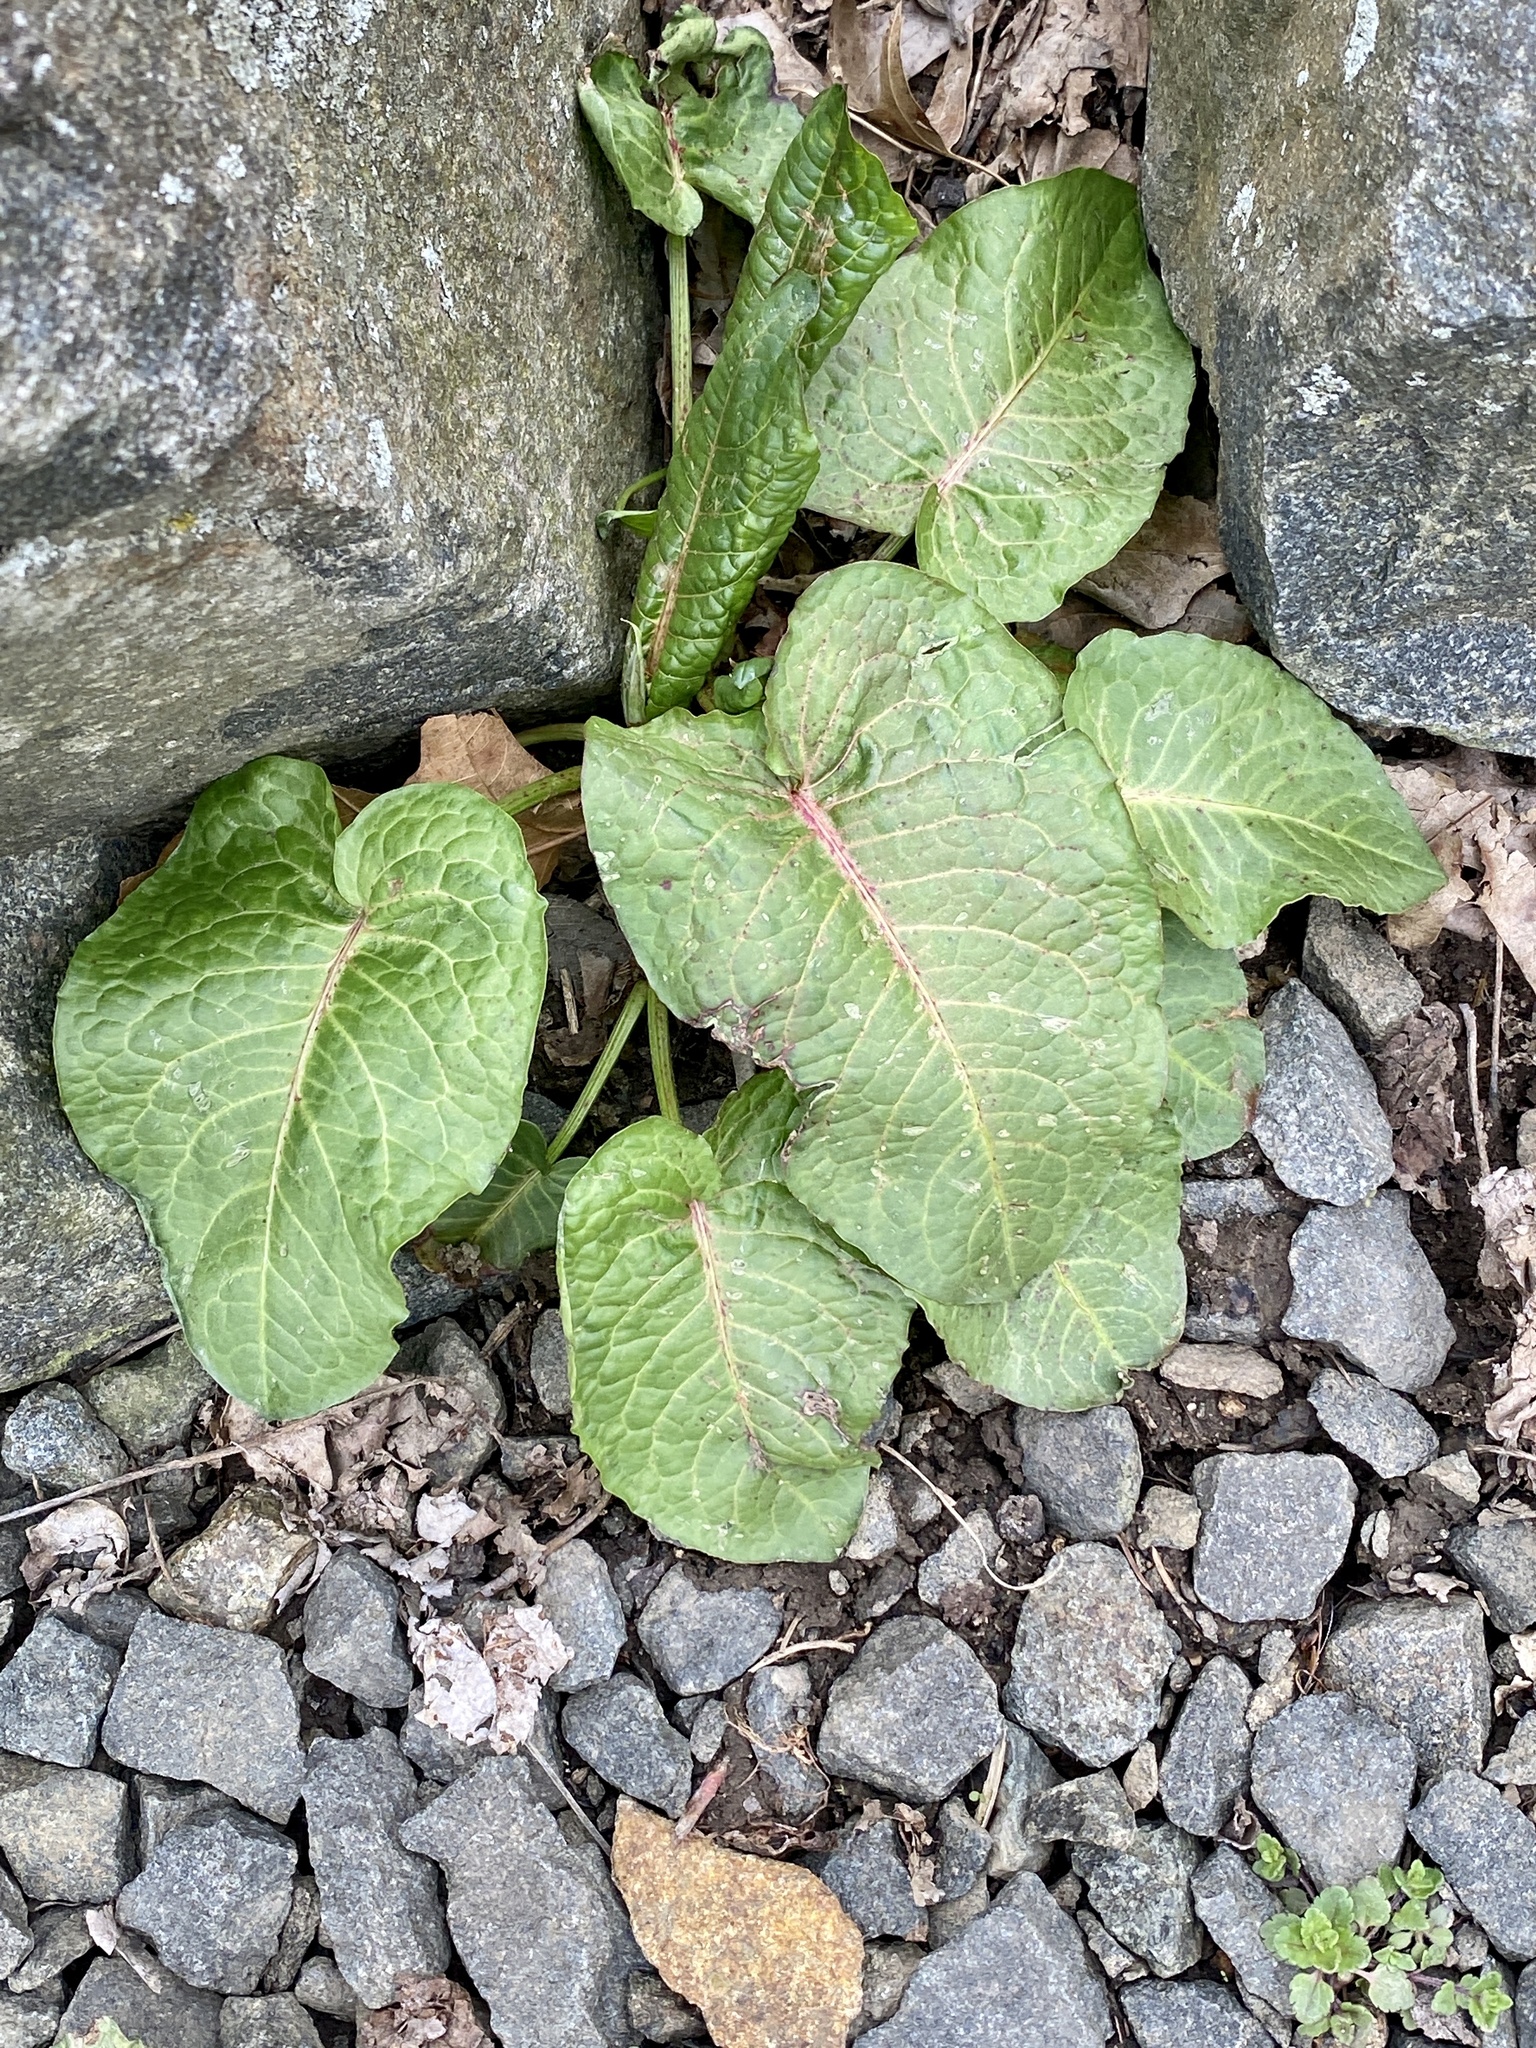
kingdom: Plantae
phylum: Tracheophyta
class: Magnoliopsida
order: Caryophyllales
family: Polygonaceae
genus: Rumex
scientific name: Rumex obtusifolius
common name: Bitter dock
